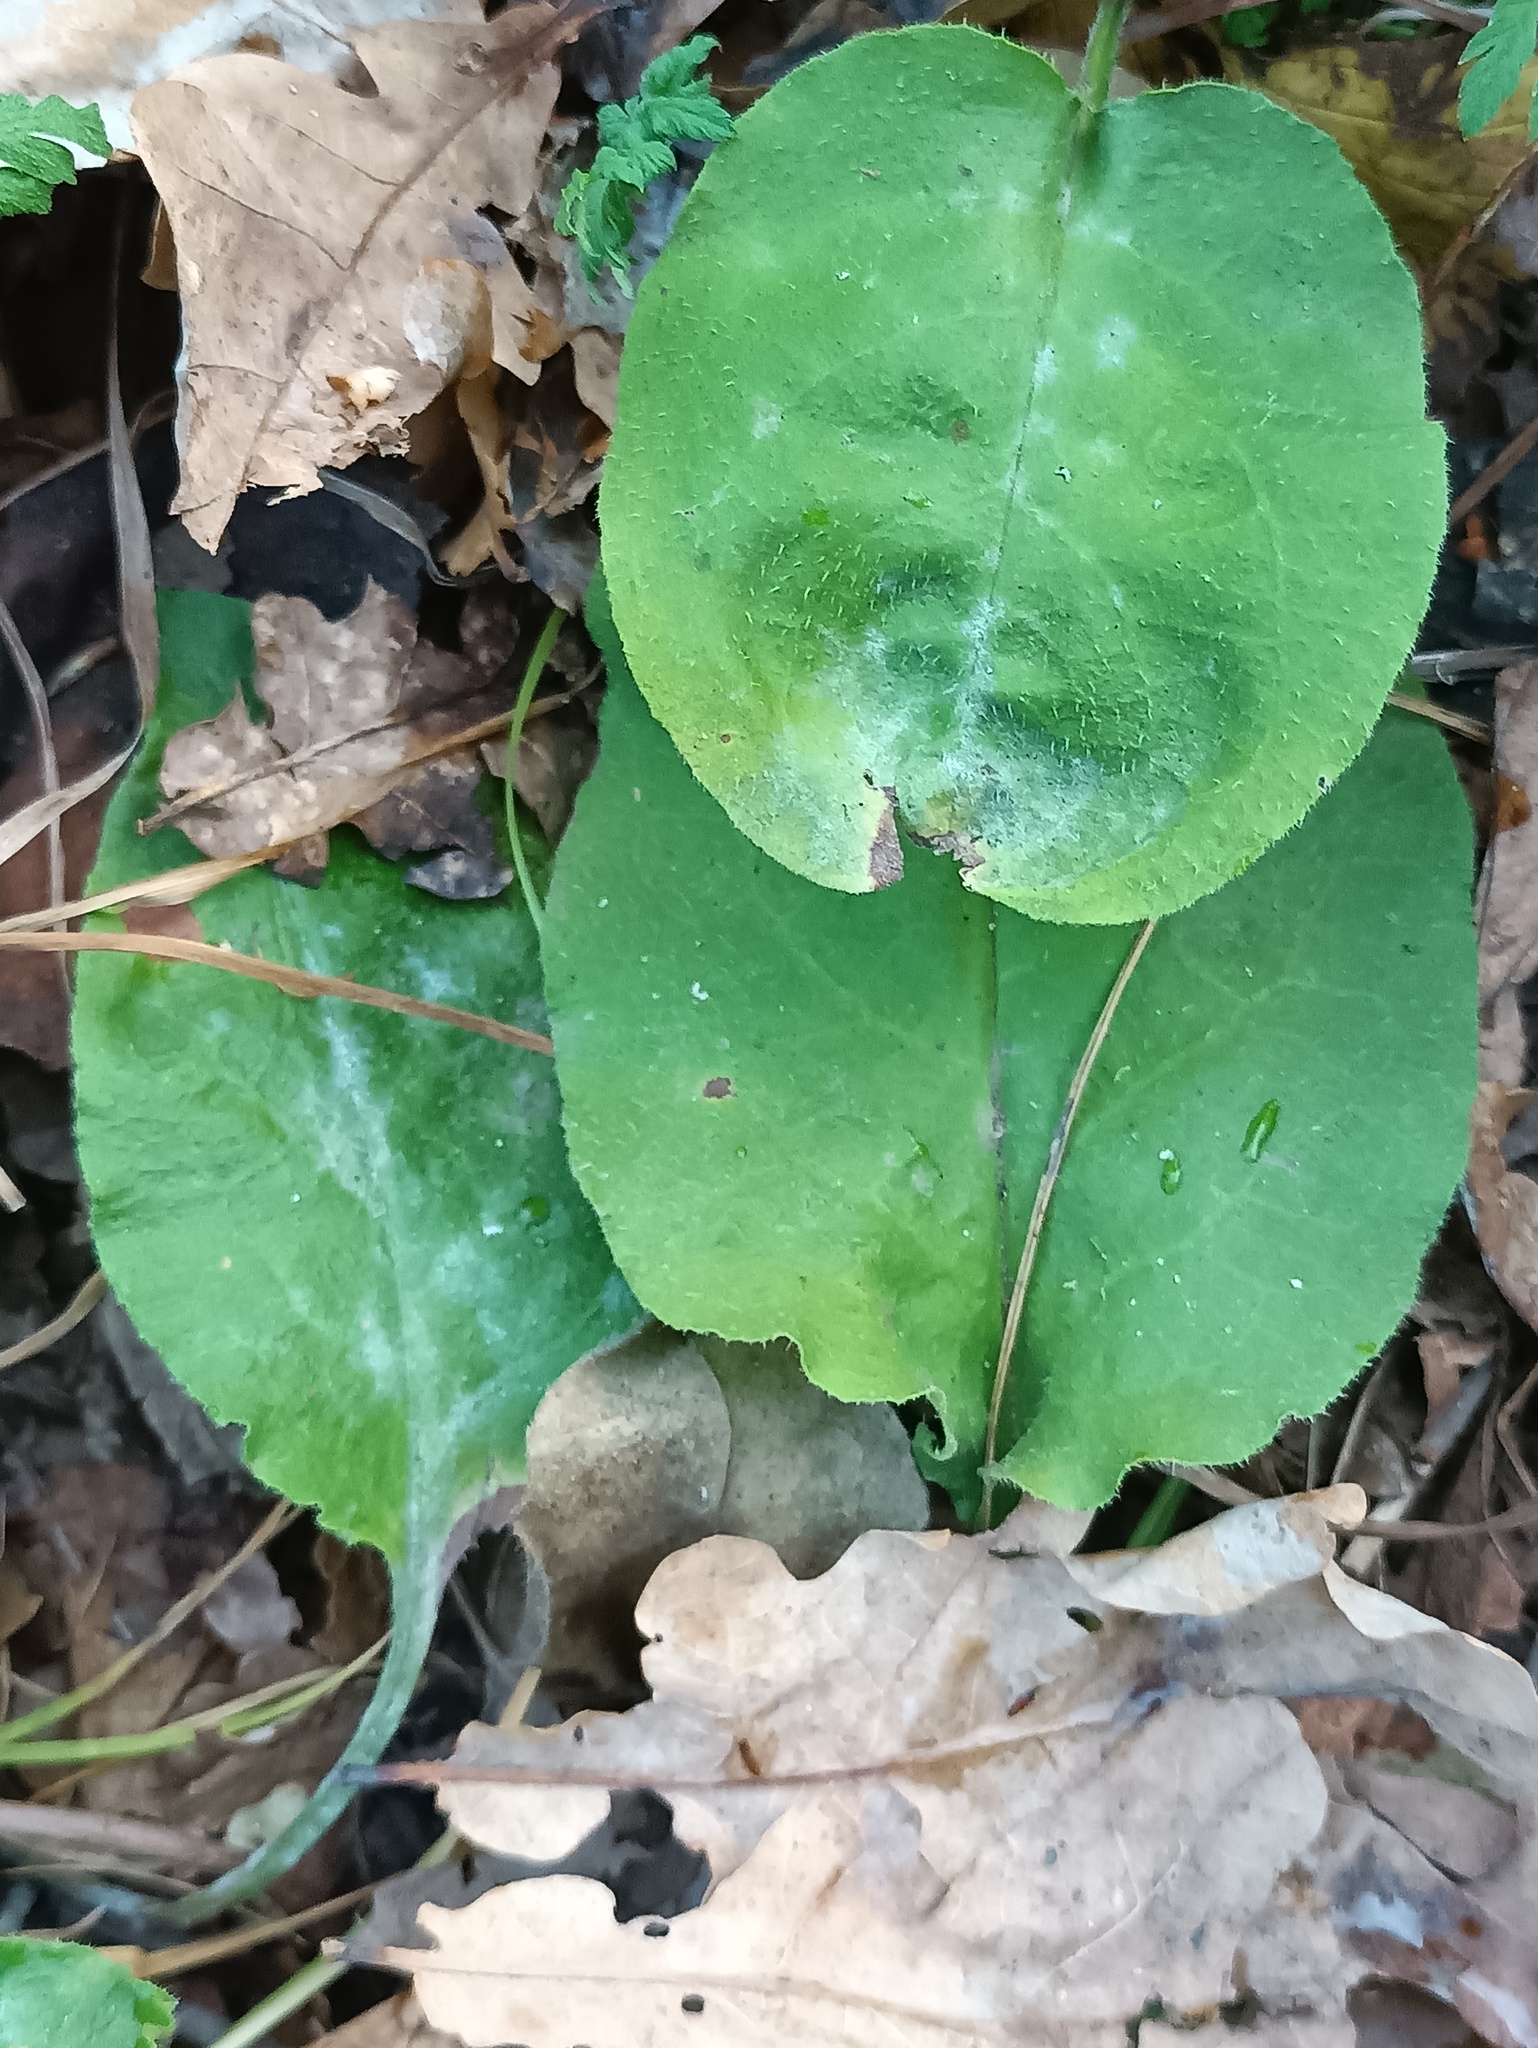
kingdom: Plantae
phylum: Tracheophyta
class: Magnoliopsida
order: Boraginales
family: Boraginaceae
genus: Pulmonaria
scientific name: Pulmonaria obscura
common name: Suffolk lungwort
